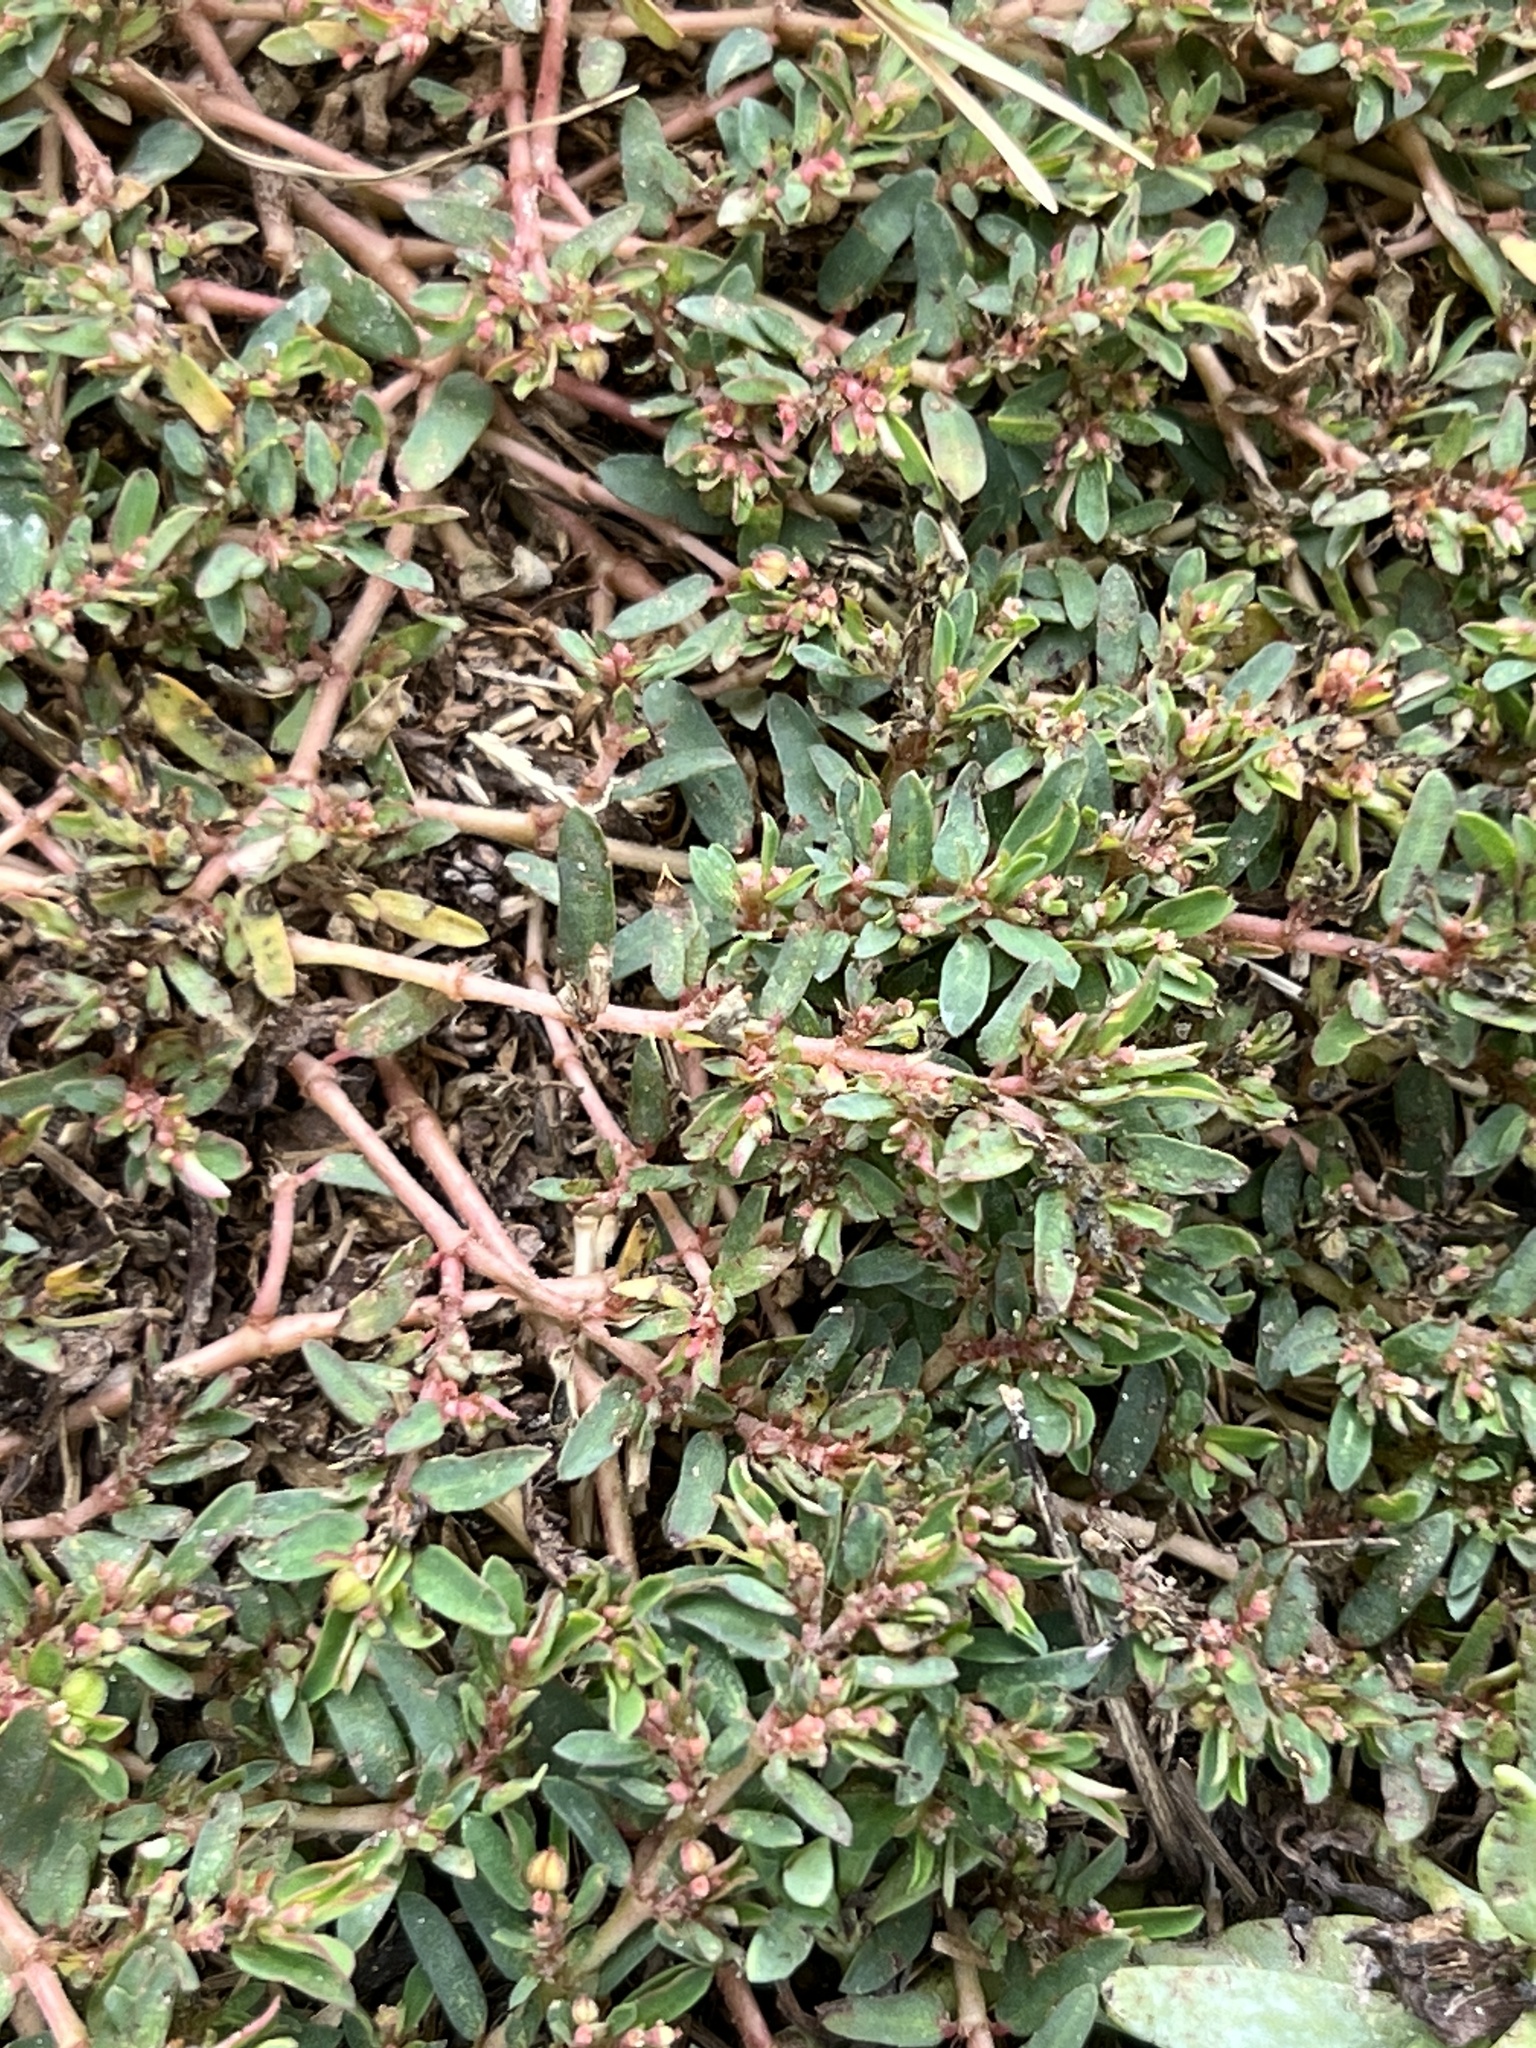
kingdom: Plantae
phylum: Tracheophyta
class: Magnoliopsida
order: Malpighiales
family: Euphorbiaceae
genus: Euphorbia
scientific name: Euphorbia maculata
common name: Spotted spurge
